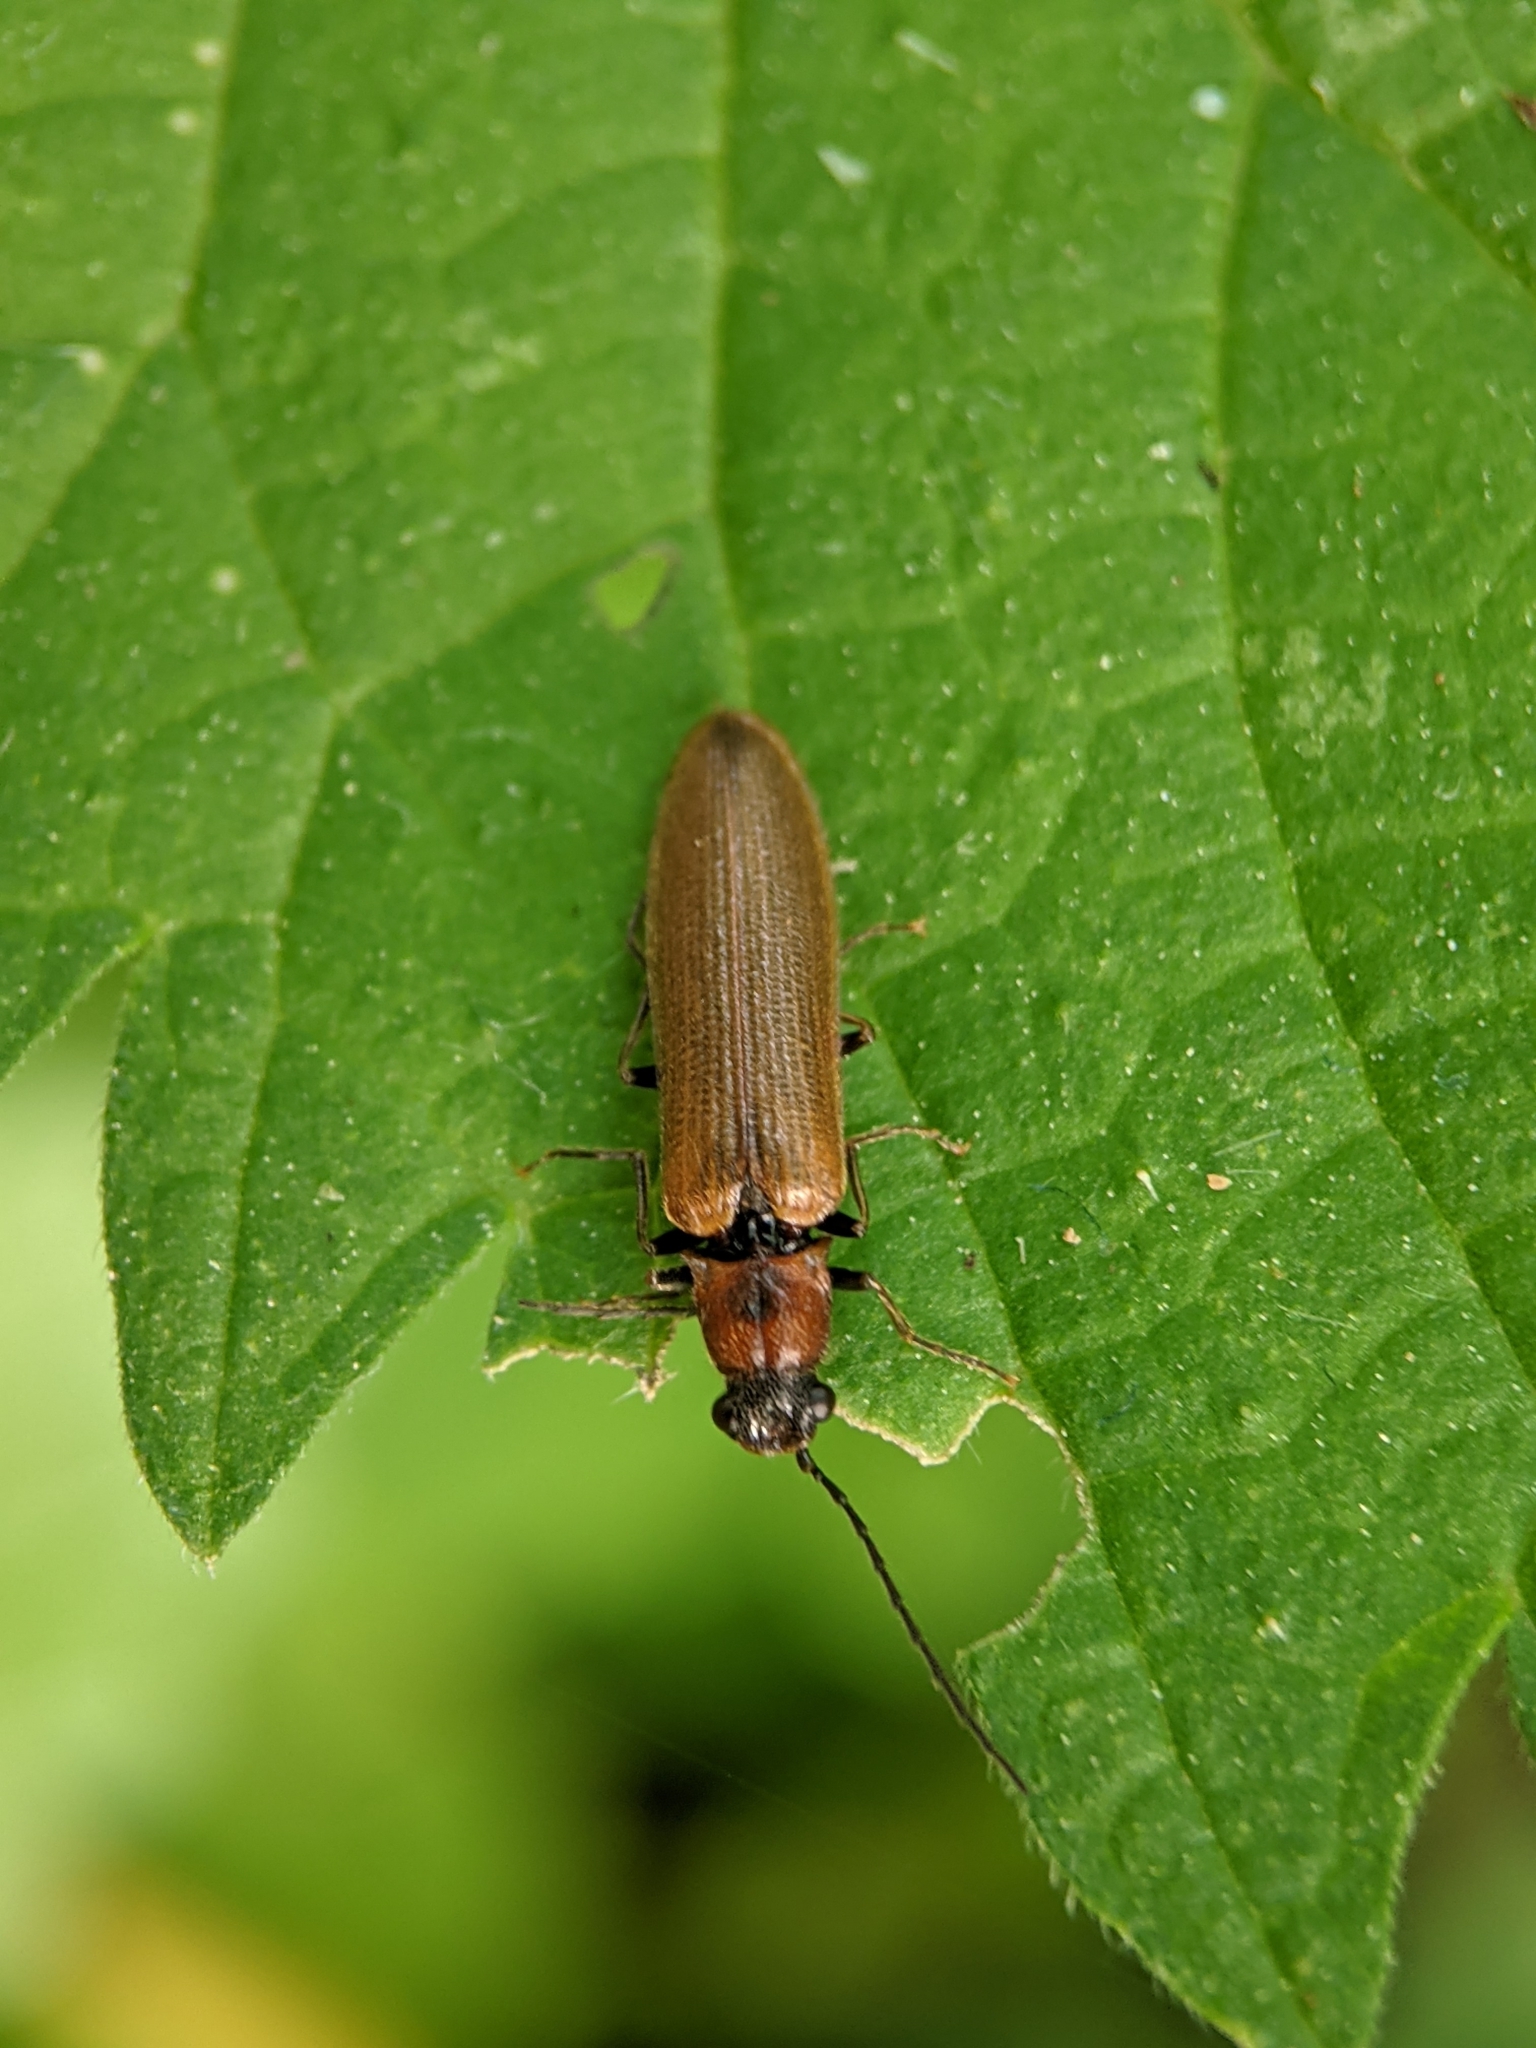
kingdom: Animalia
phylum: Arthropoda
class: Insecta
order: Coleoptera
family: Elateridae
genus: Denticollis
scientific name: Denticollis linearis
